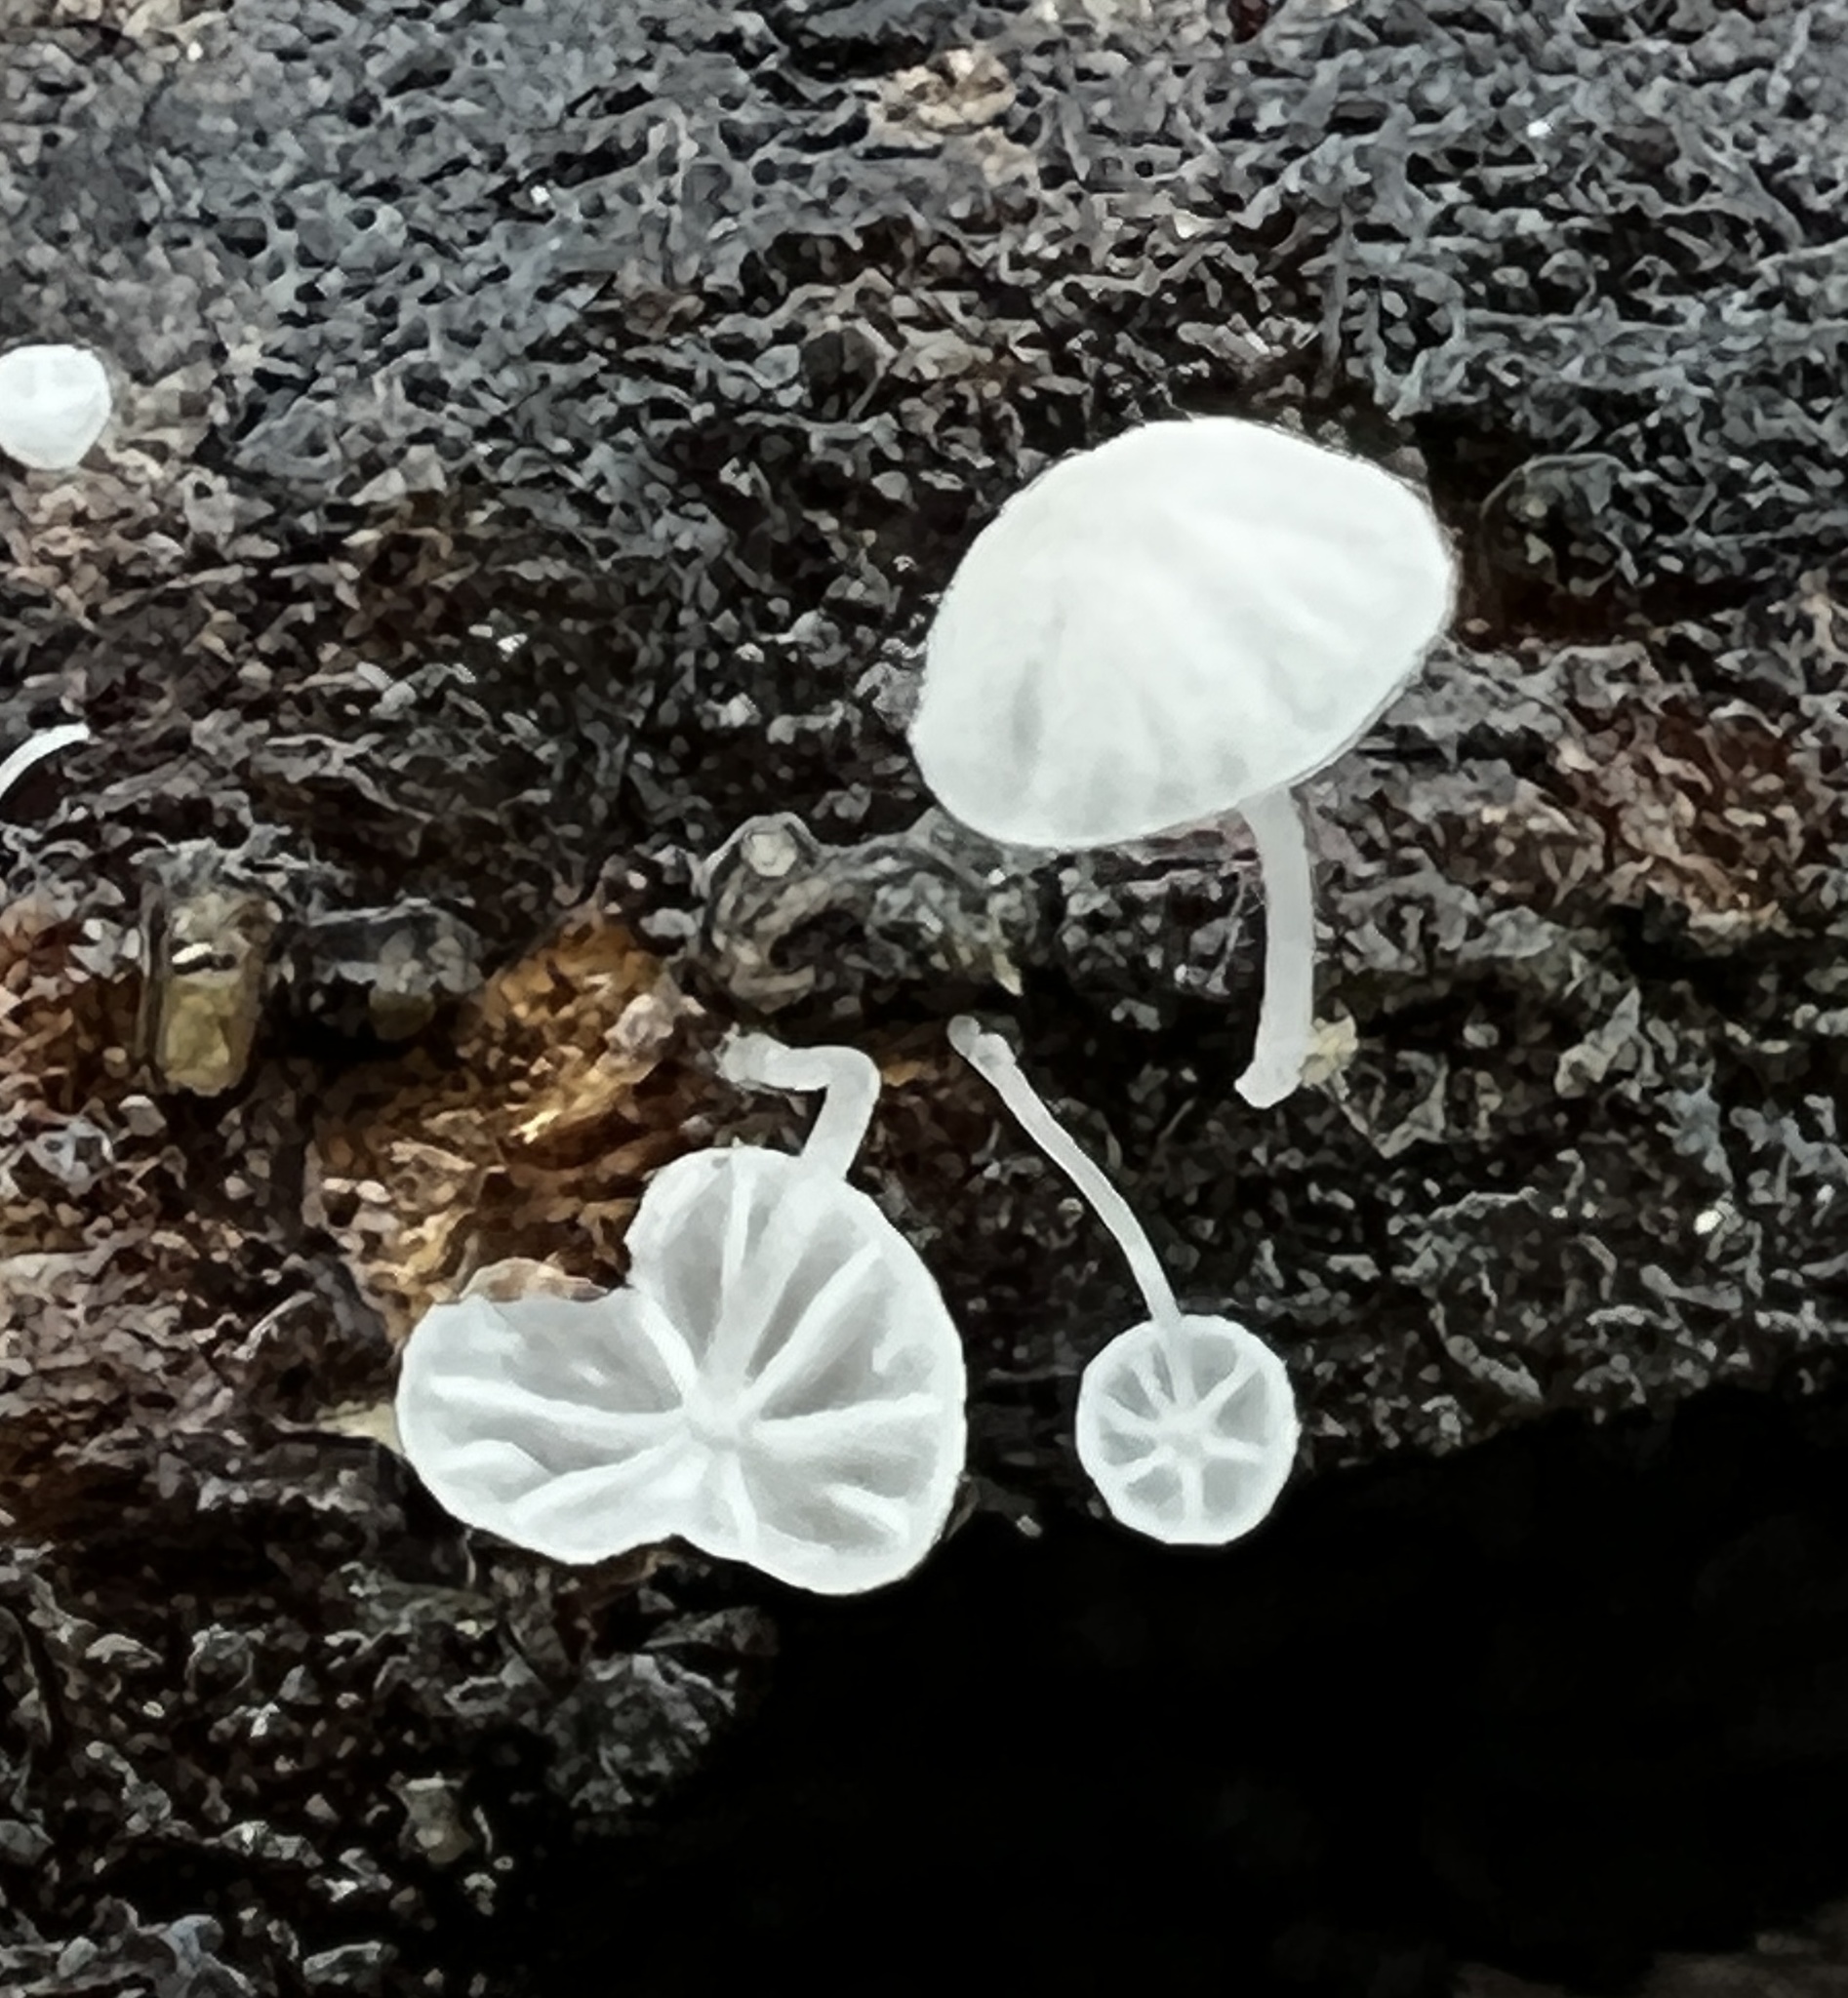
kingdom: Fungi
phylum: Basidiomycota
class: Agaricomycetes
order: Agaricales
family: Omphalotaceae
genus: Marasmiellus
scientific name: Marasmiellus candidus
